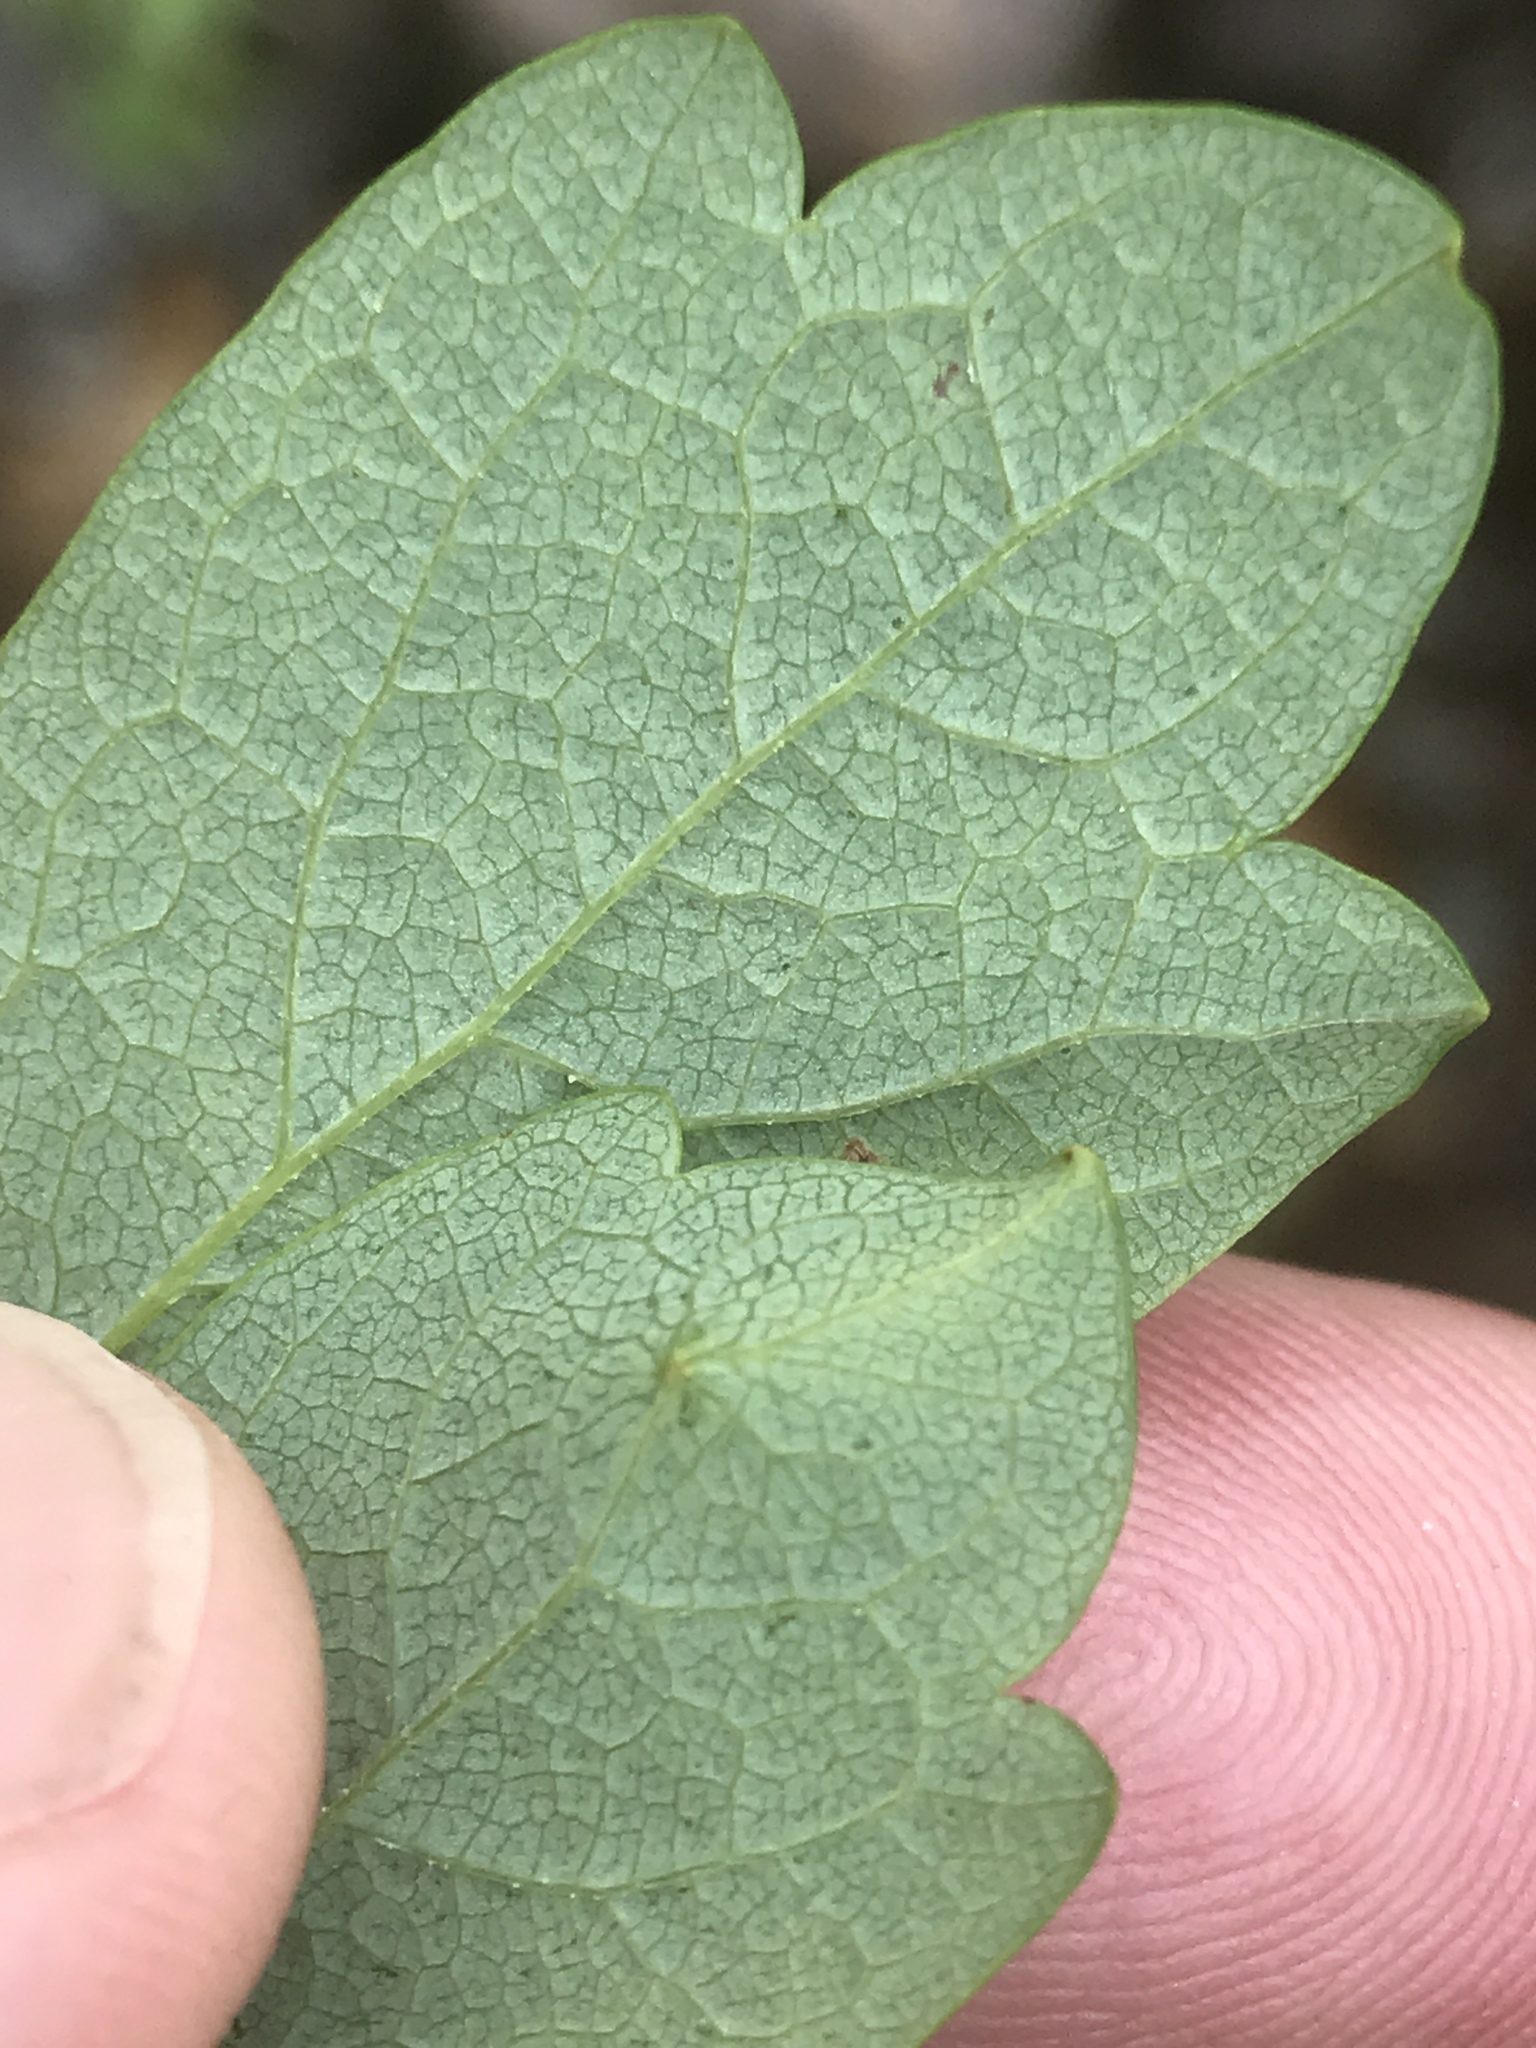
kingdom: Plantae
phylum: Tracheophyta
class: Magnoliopsida
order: Ranunculales
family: Ranunculaceae
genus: Thalictrum
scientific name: Thalictrum pubescens
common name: King-of-the-meadow
